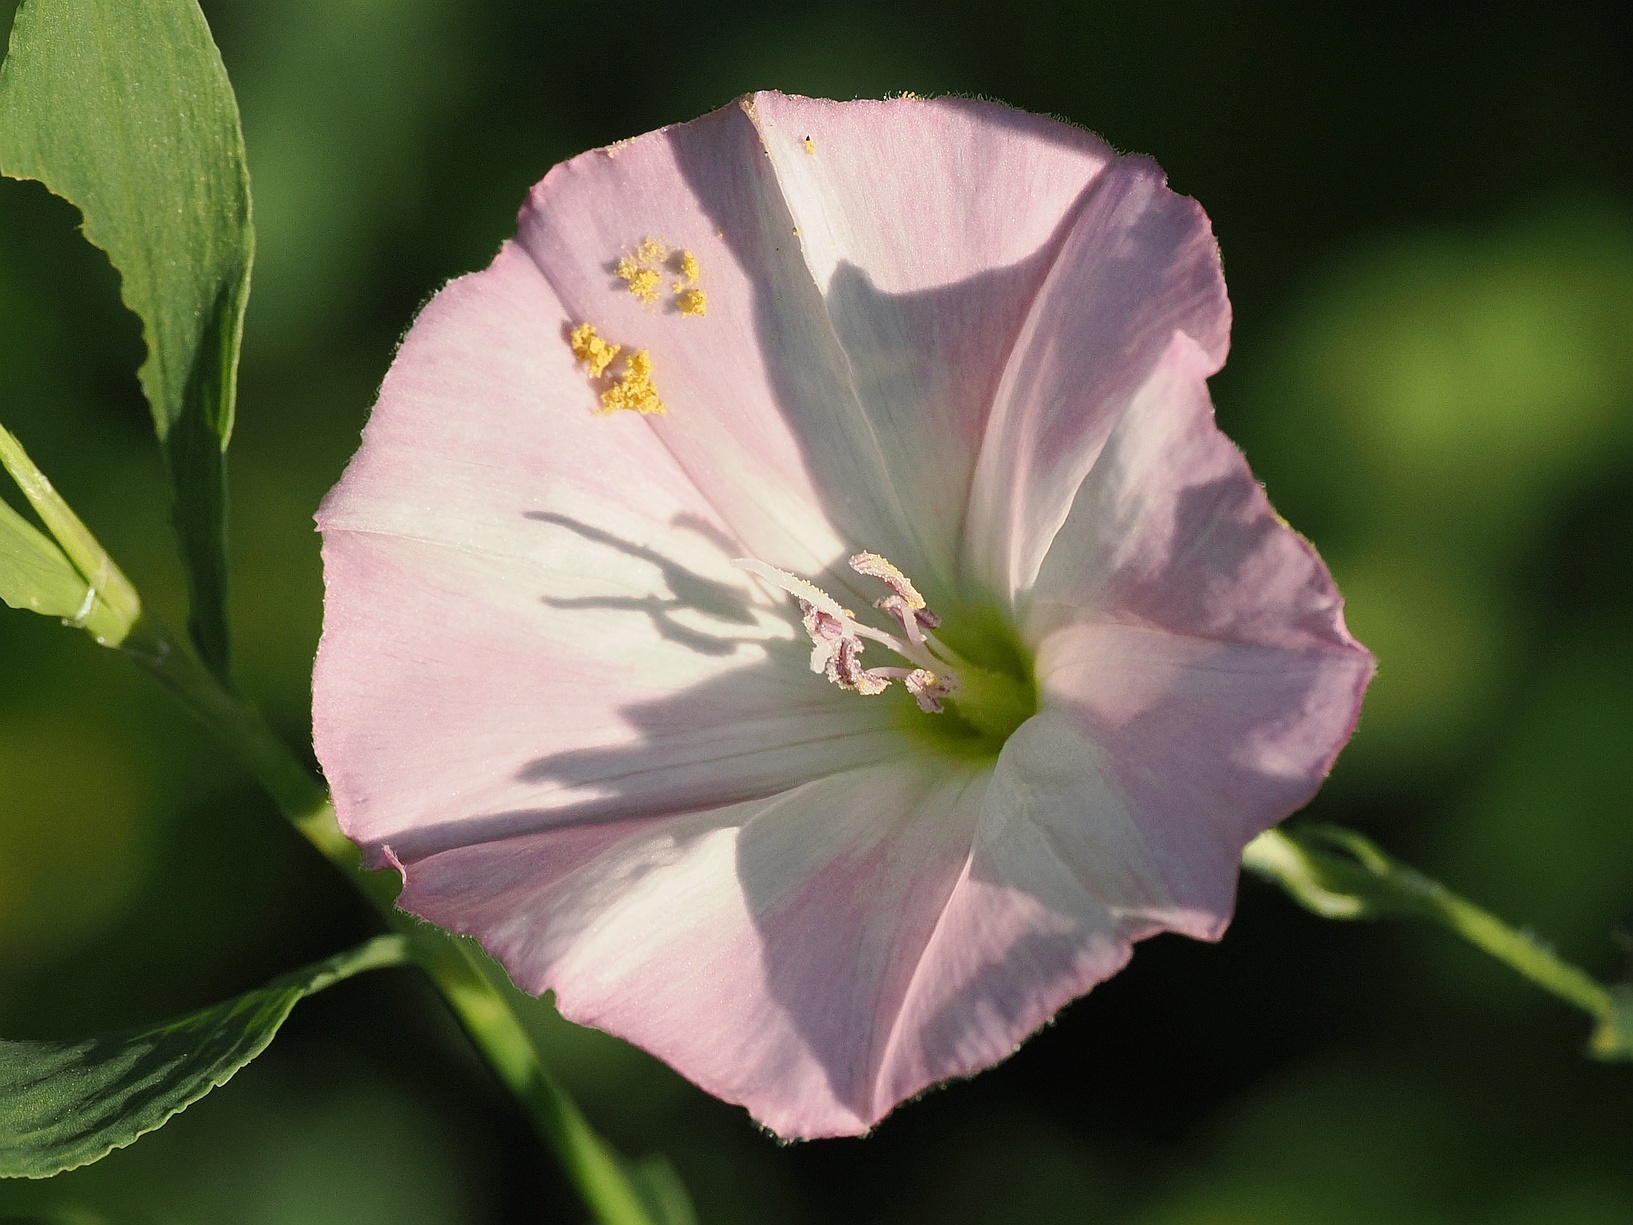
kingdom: Plantae
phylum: Tracheophyta
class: Magnoliopsida
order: Solanales
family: Convolvulaceae
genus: Convolvulus
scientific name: Convolvulus arvensis
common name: Field bindweed
